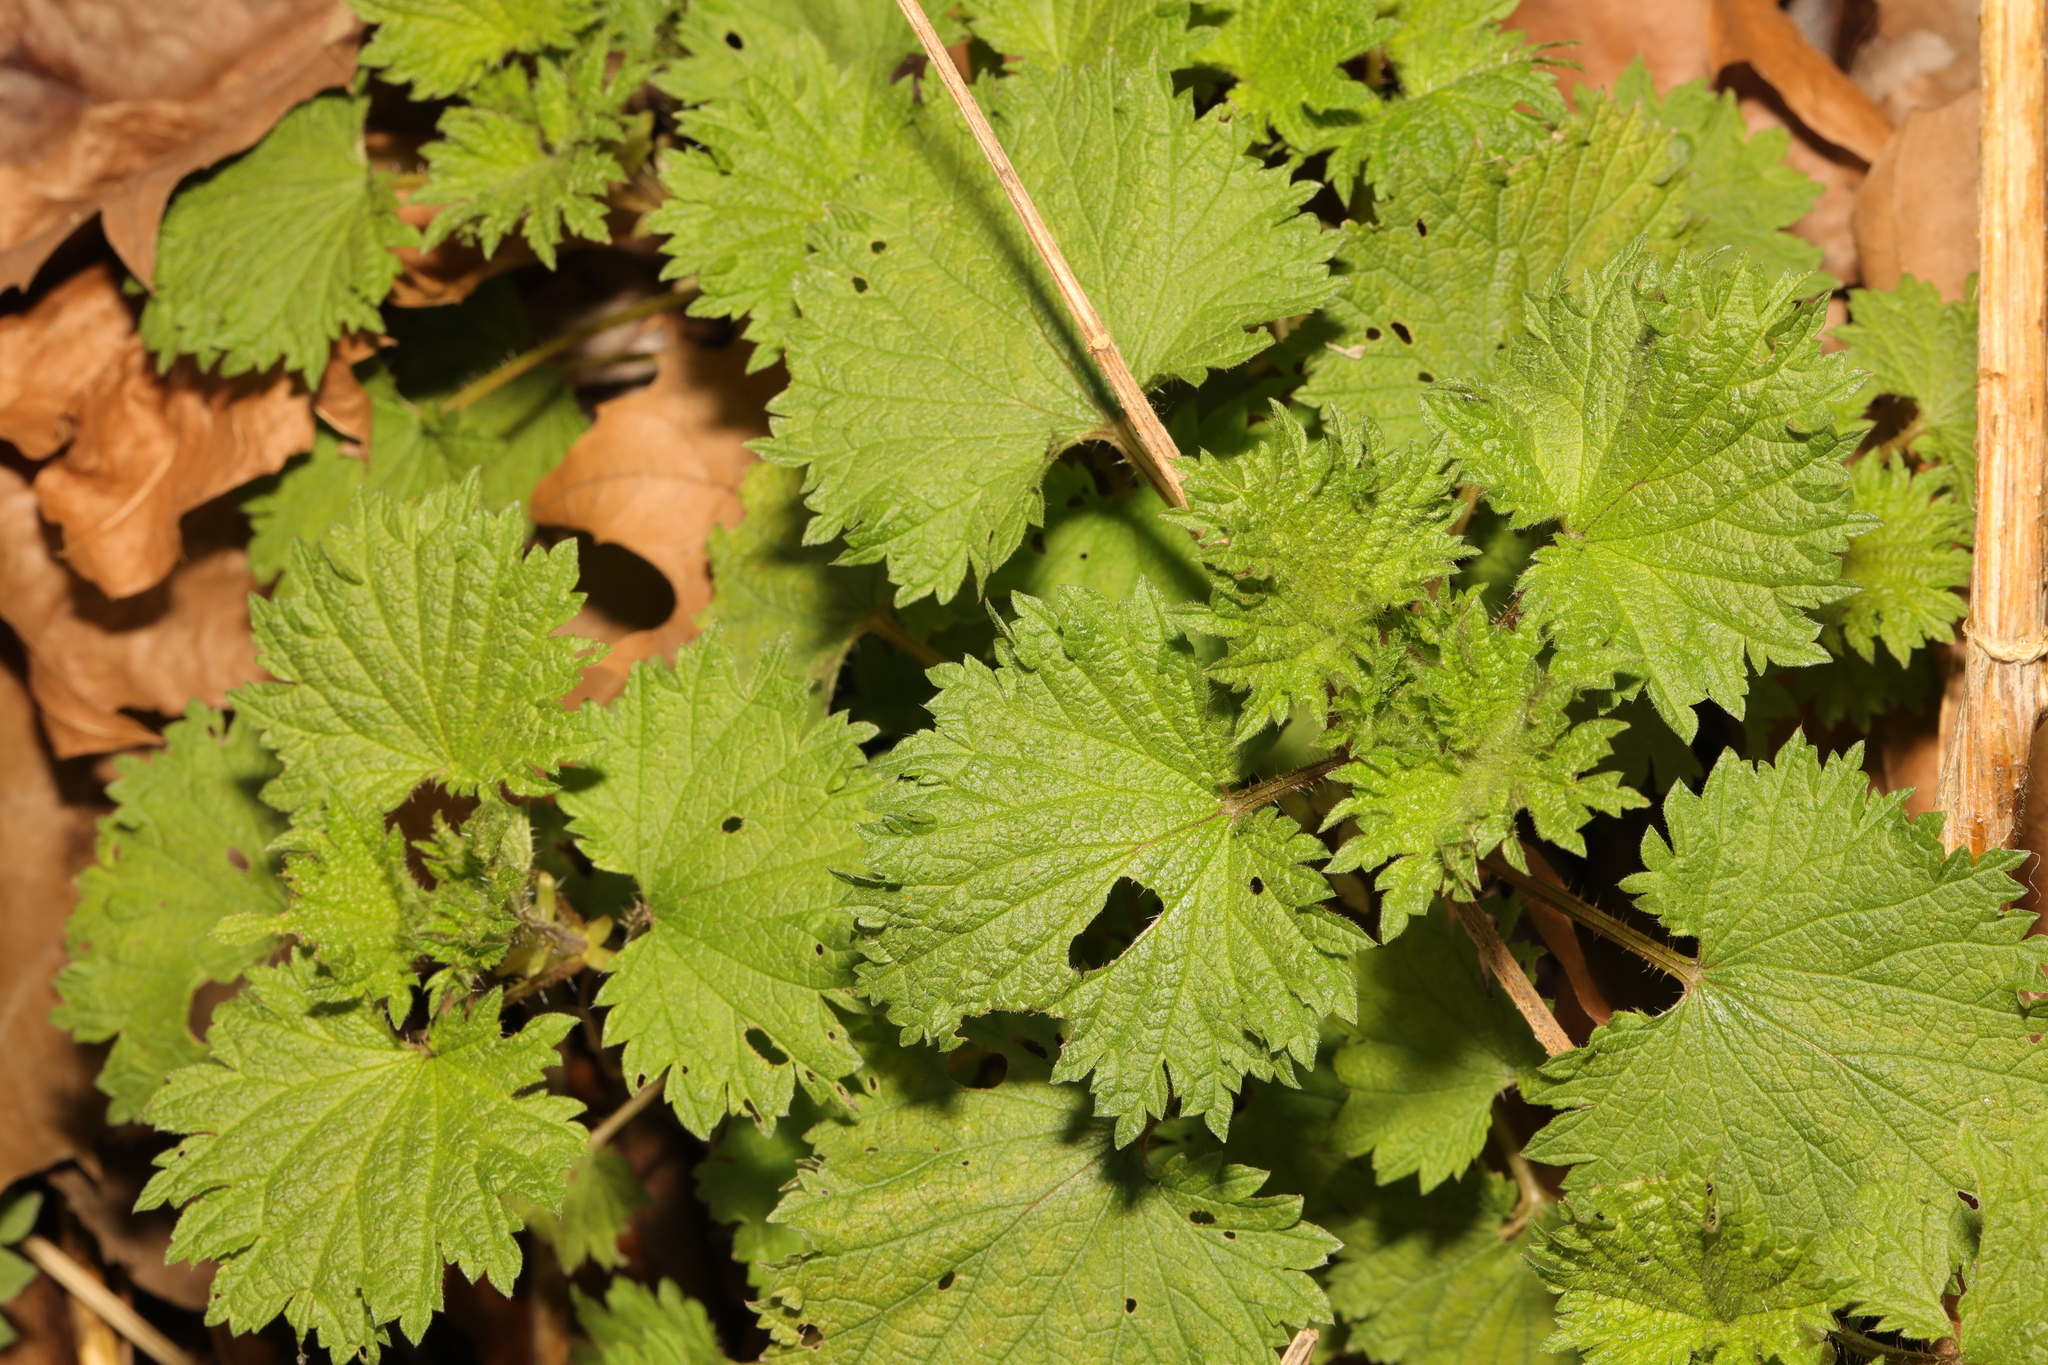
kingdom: Plantae
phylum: Tracheophyta
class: Magnoliopsida
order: Rosales
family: Urticaceae
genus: Urtica
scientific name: Urtica dioica
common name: Common nettle
